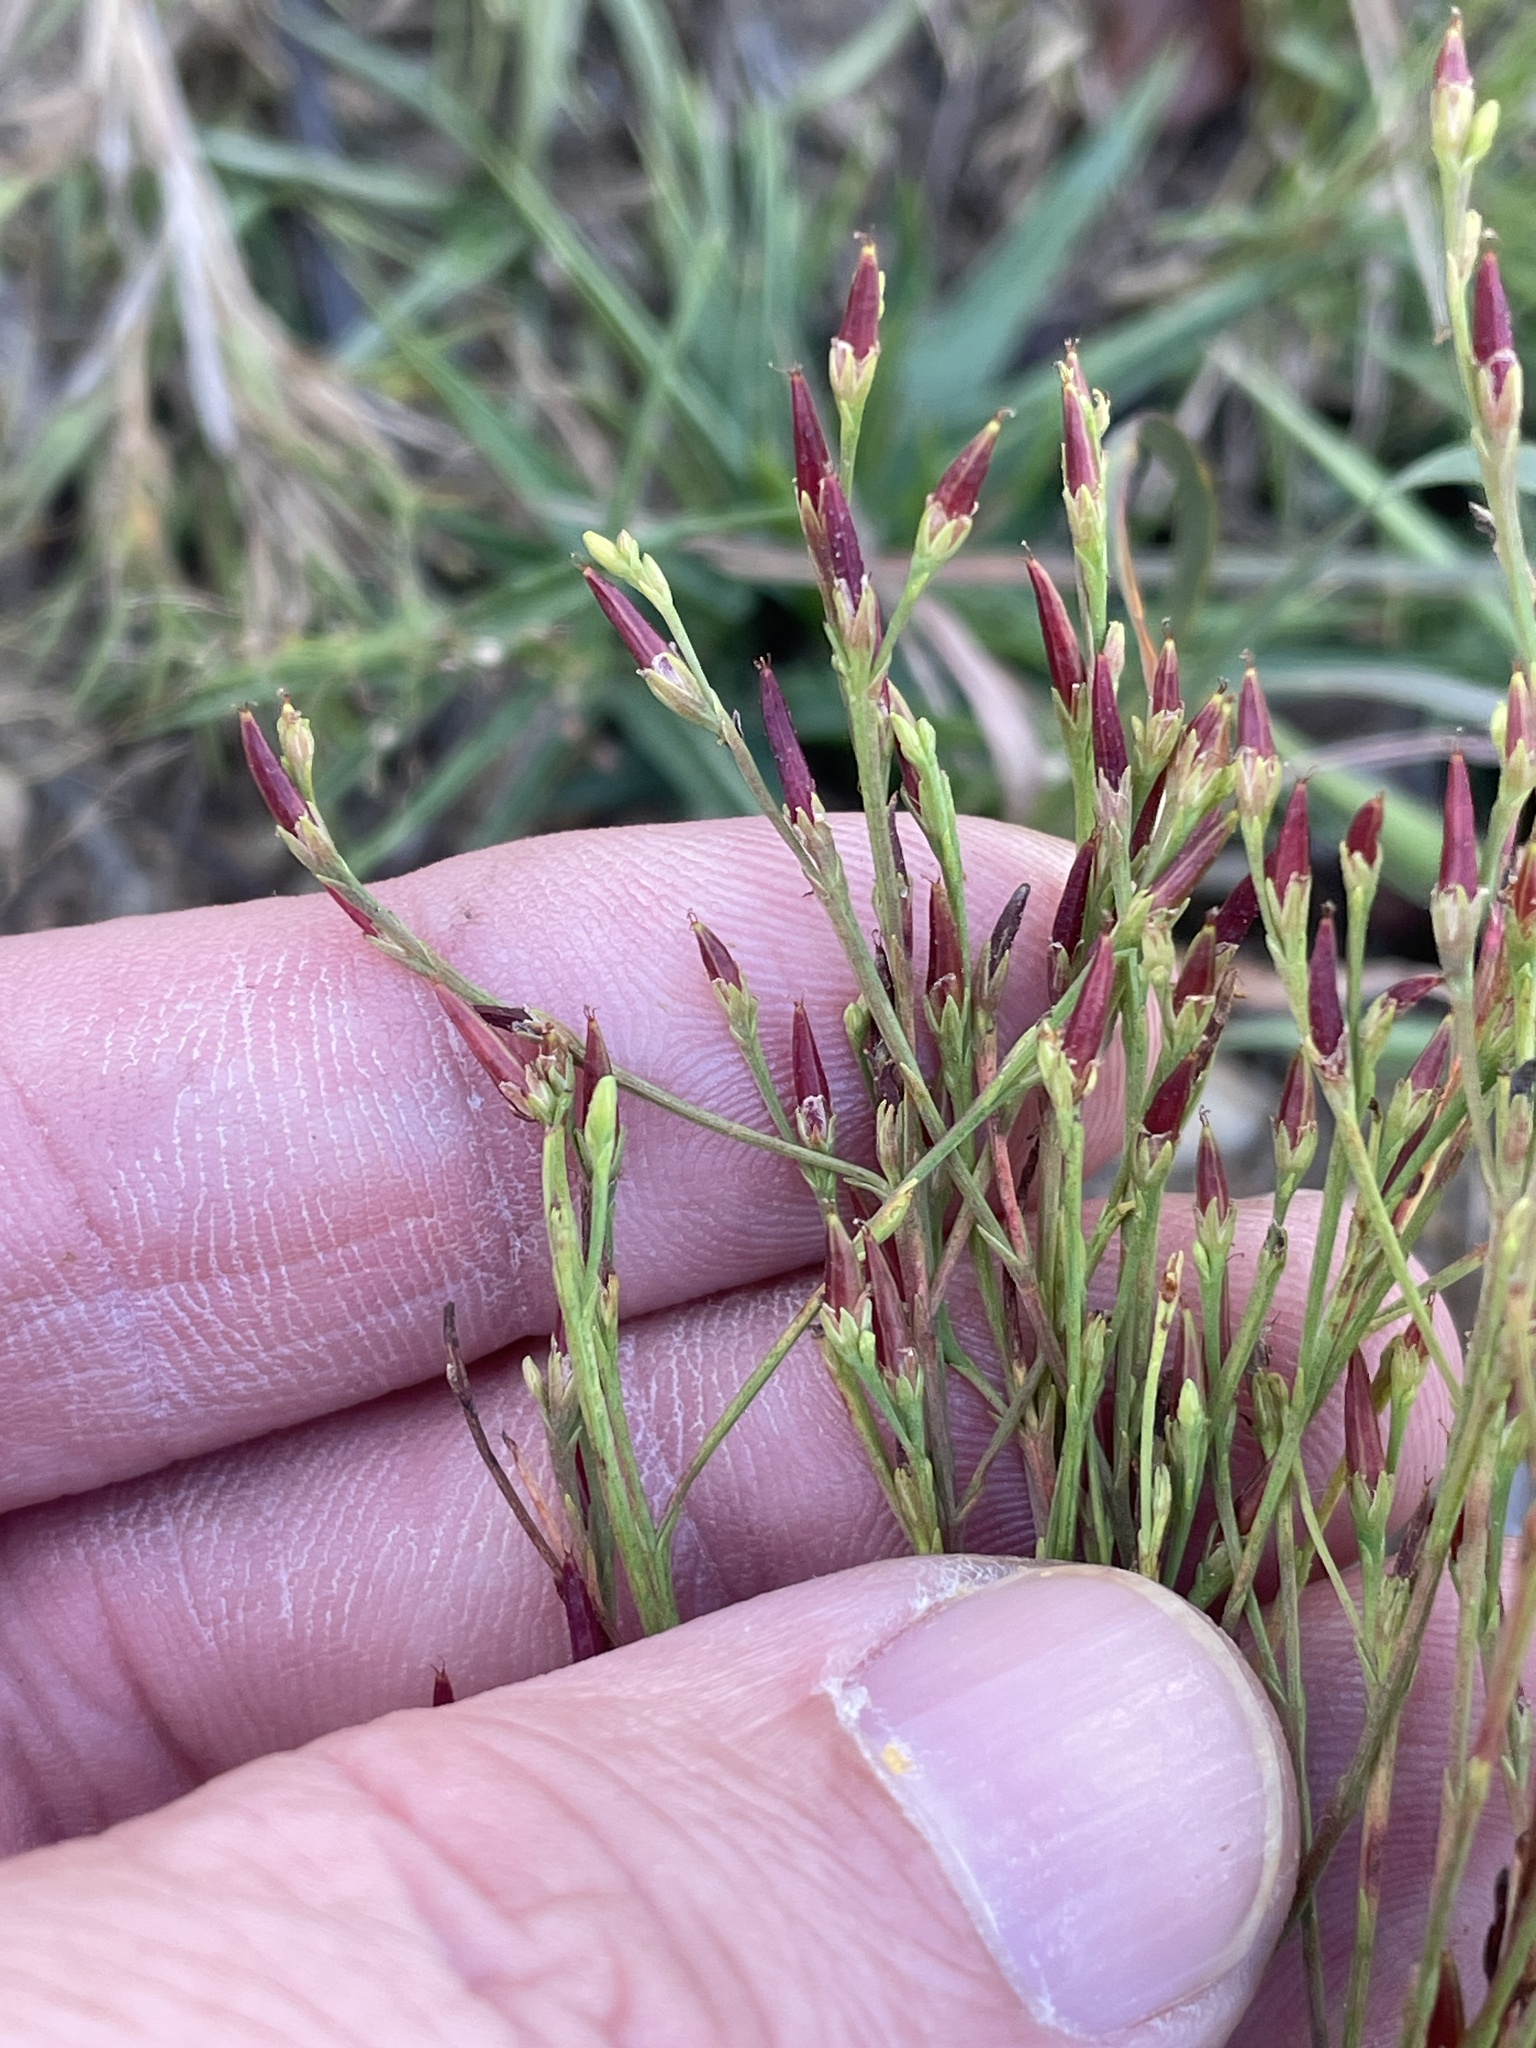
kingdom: Plantae
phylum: Tracheophyta
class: Magnoliopsida
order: Malpighiales
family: Hypericaceae
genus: Hypericum
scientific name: Hypericum gentianoides
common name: Gentian-leaved st. john's-wort
